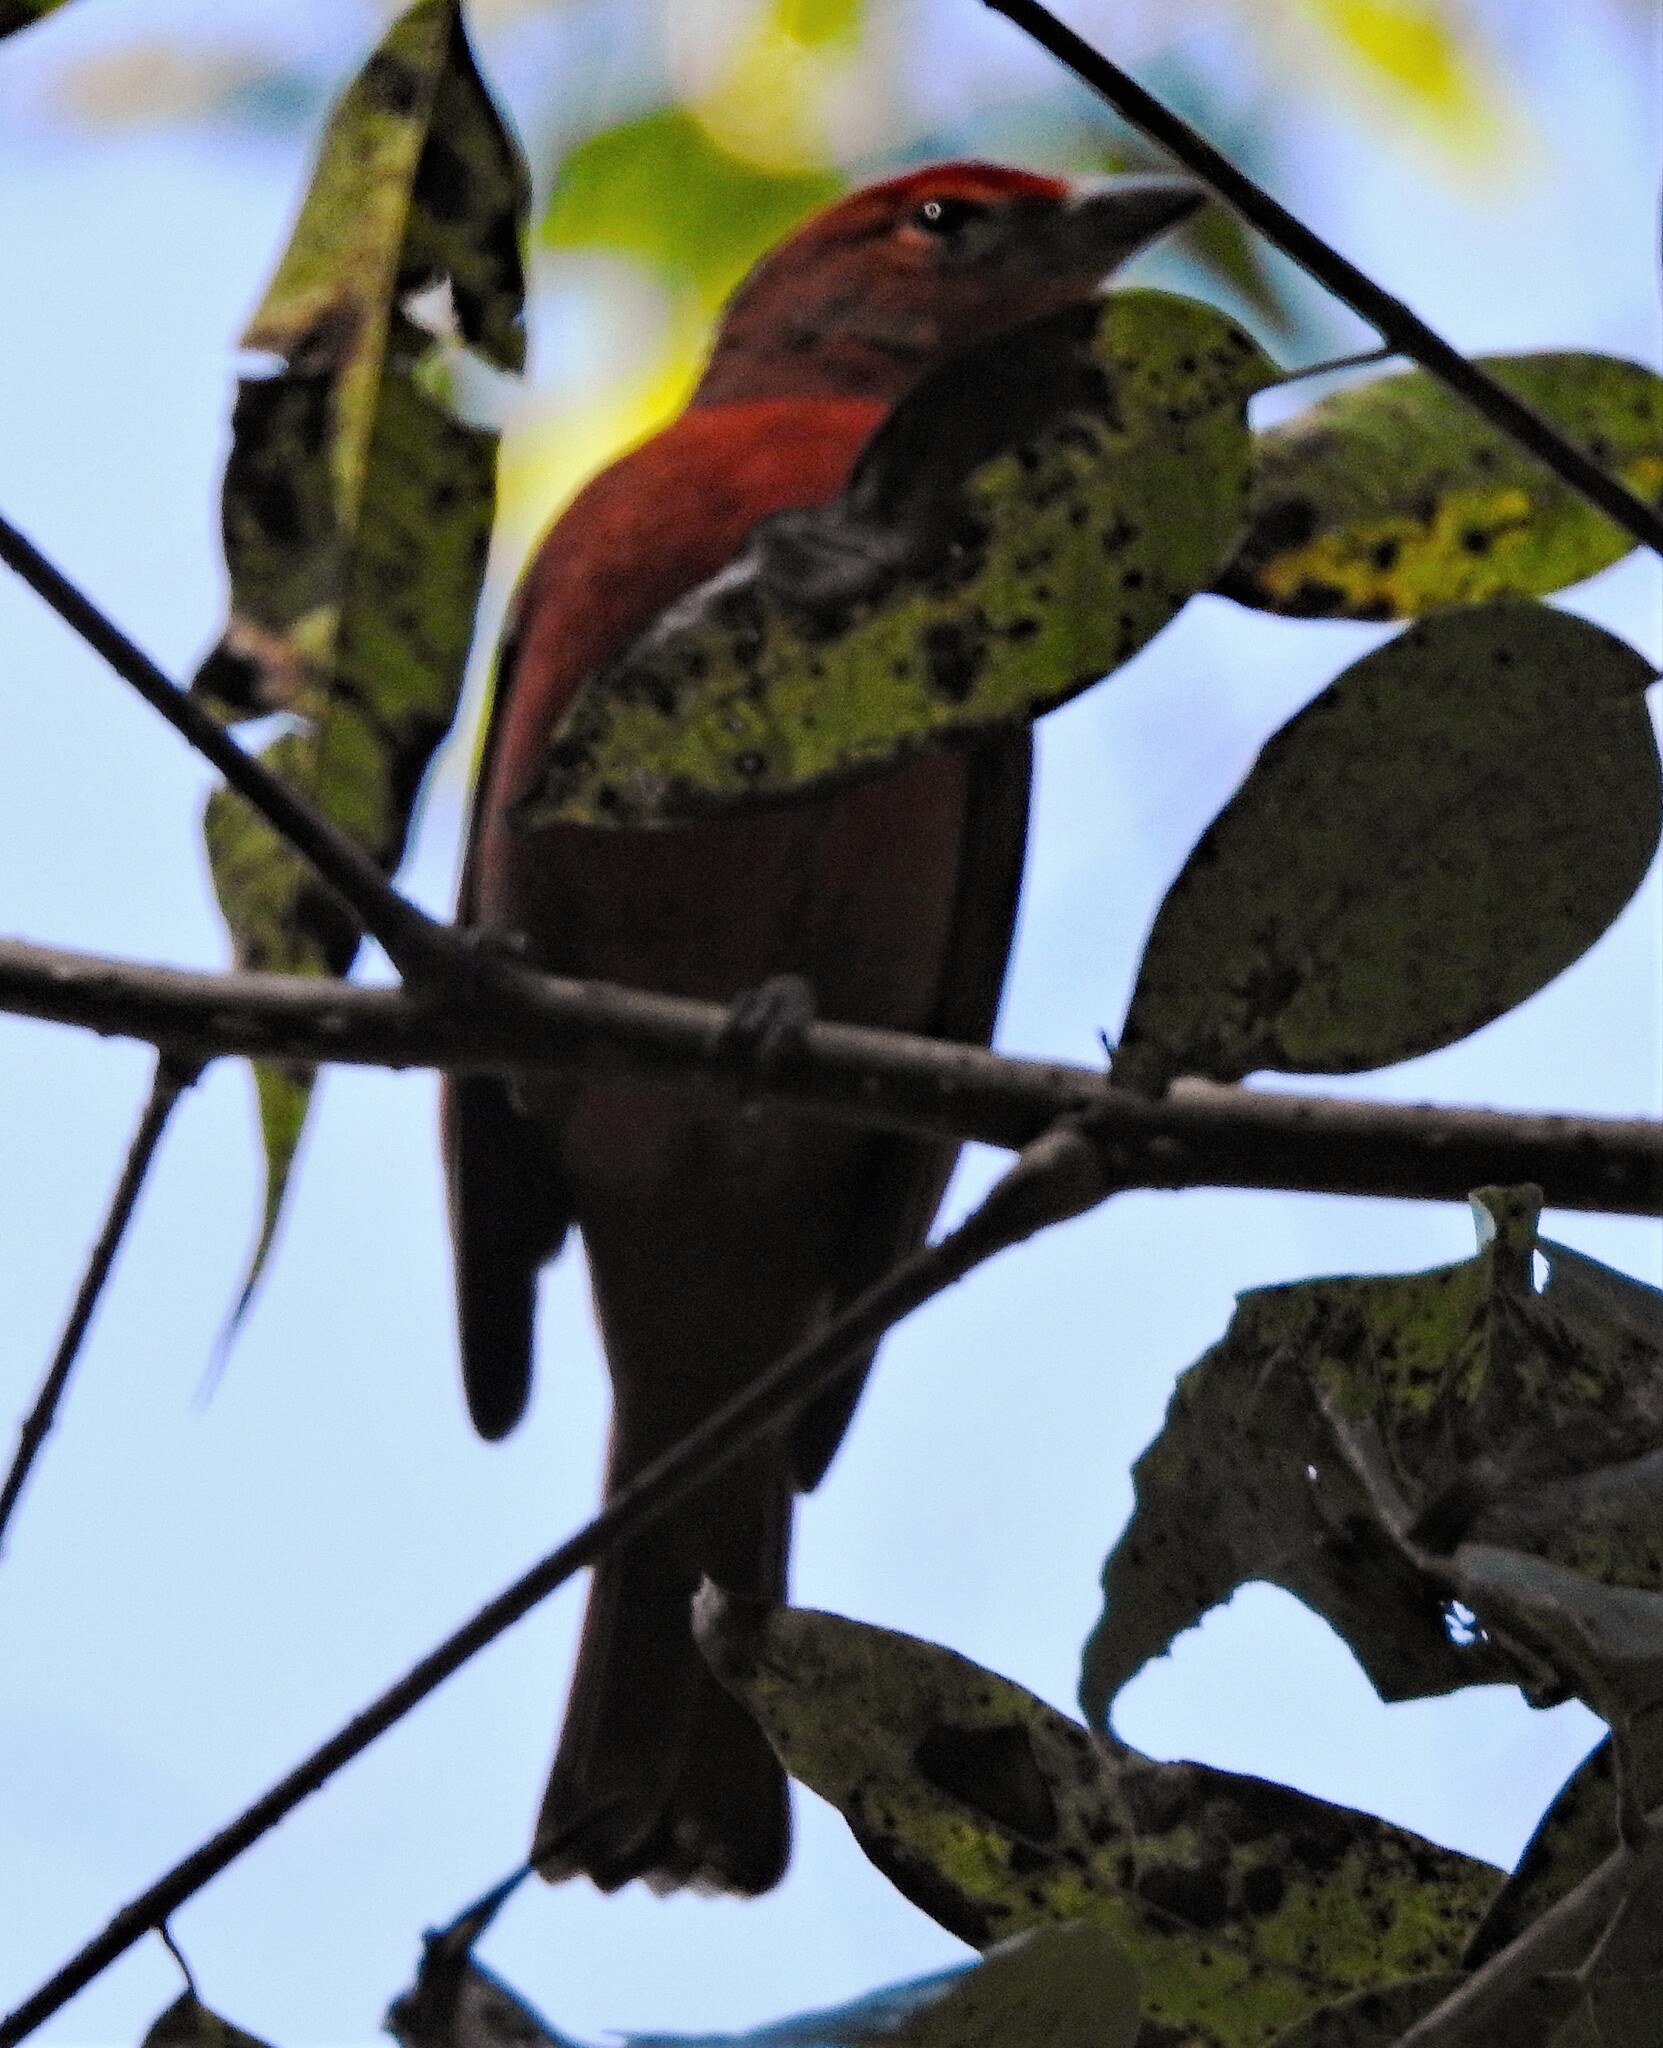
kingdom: Animalia
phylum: Chordata
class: Aves
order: Passeriformes
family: Cardinalidae
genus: Piranga
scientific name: Piranga flava
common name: Red tanager
